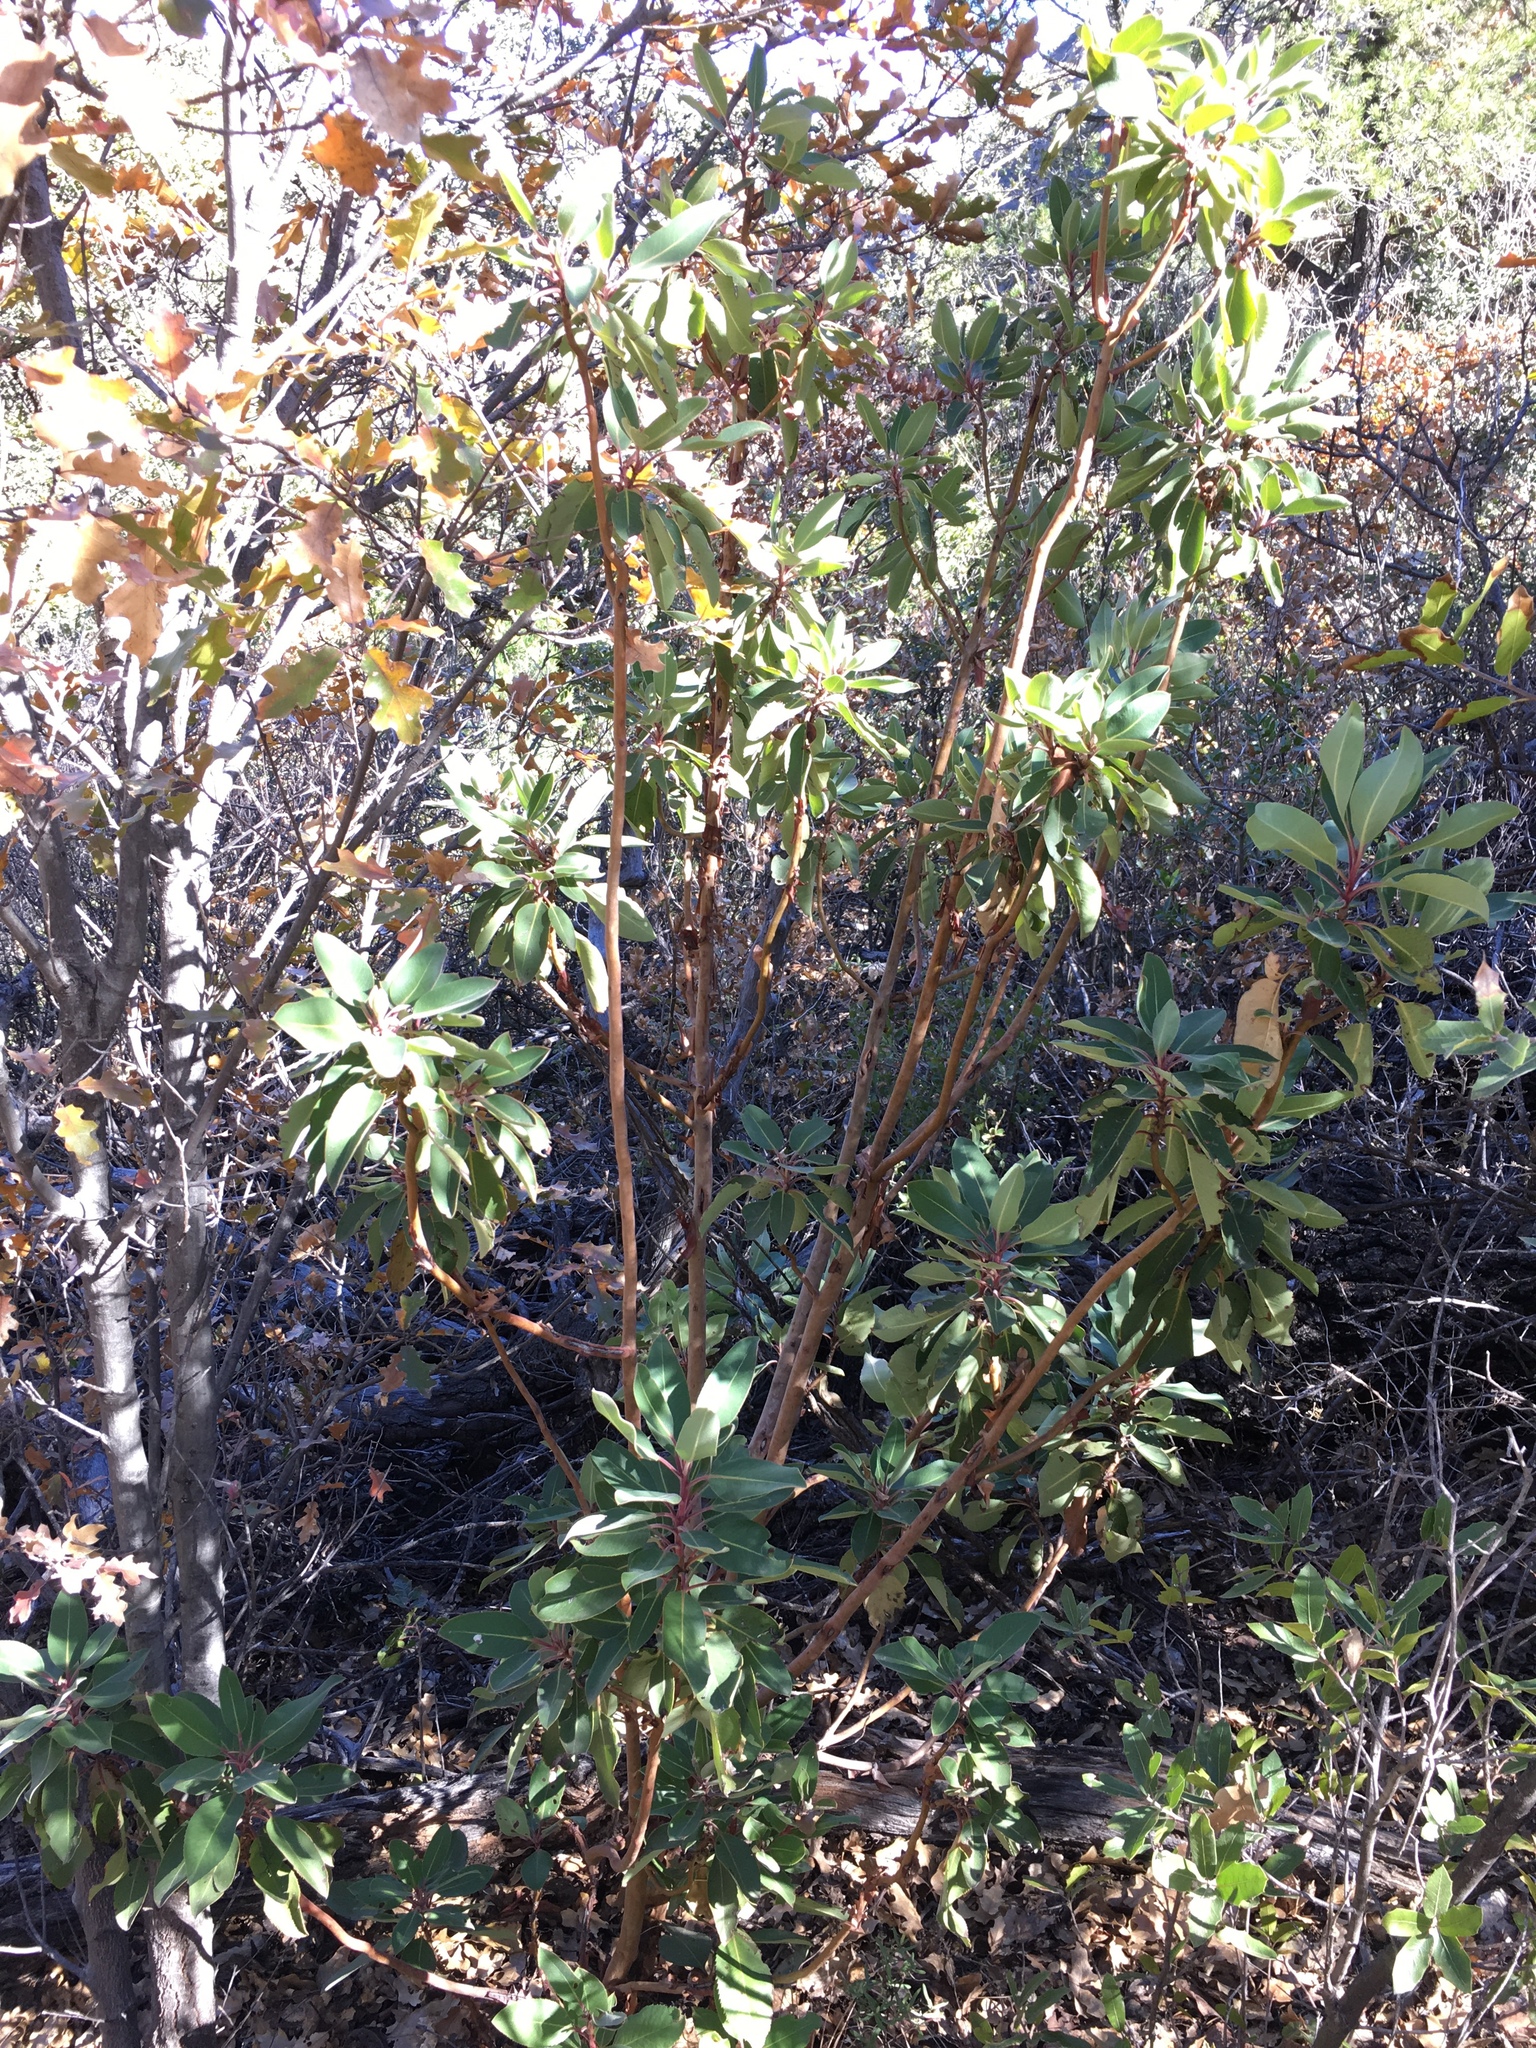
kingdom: Plantae
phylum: Tracheophyta
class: Magnoliopsida
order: Ericales
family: Ericaceae
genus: Arbutus
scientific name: Arbutus xalapensis
